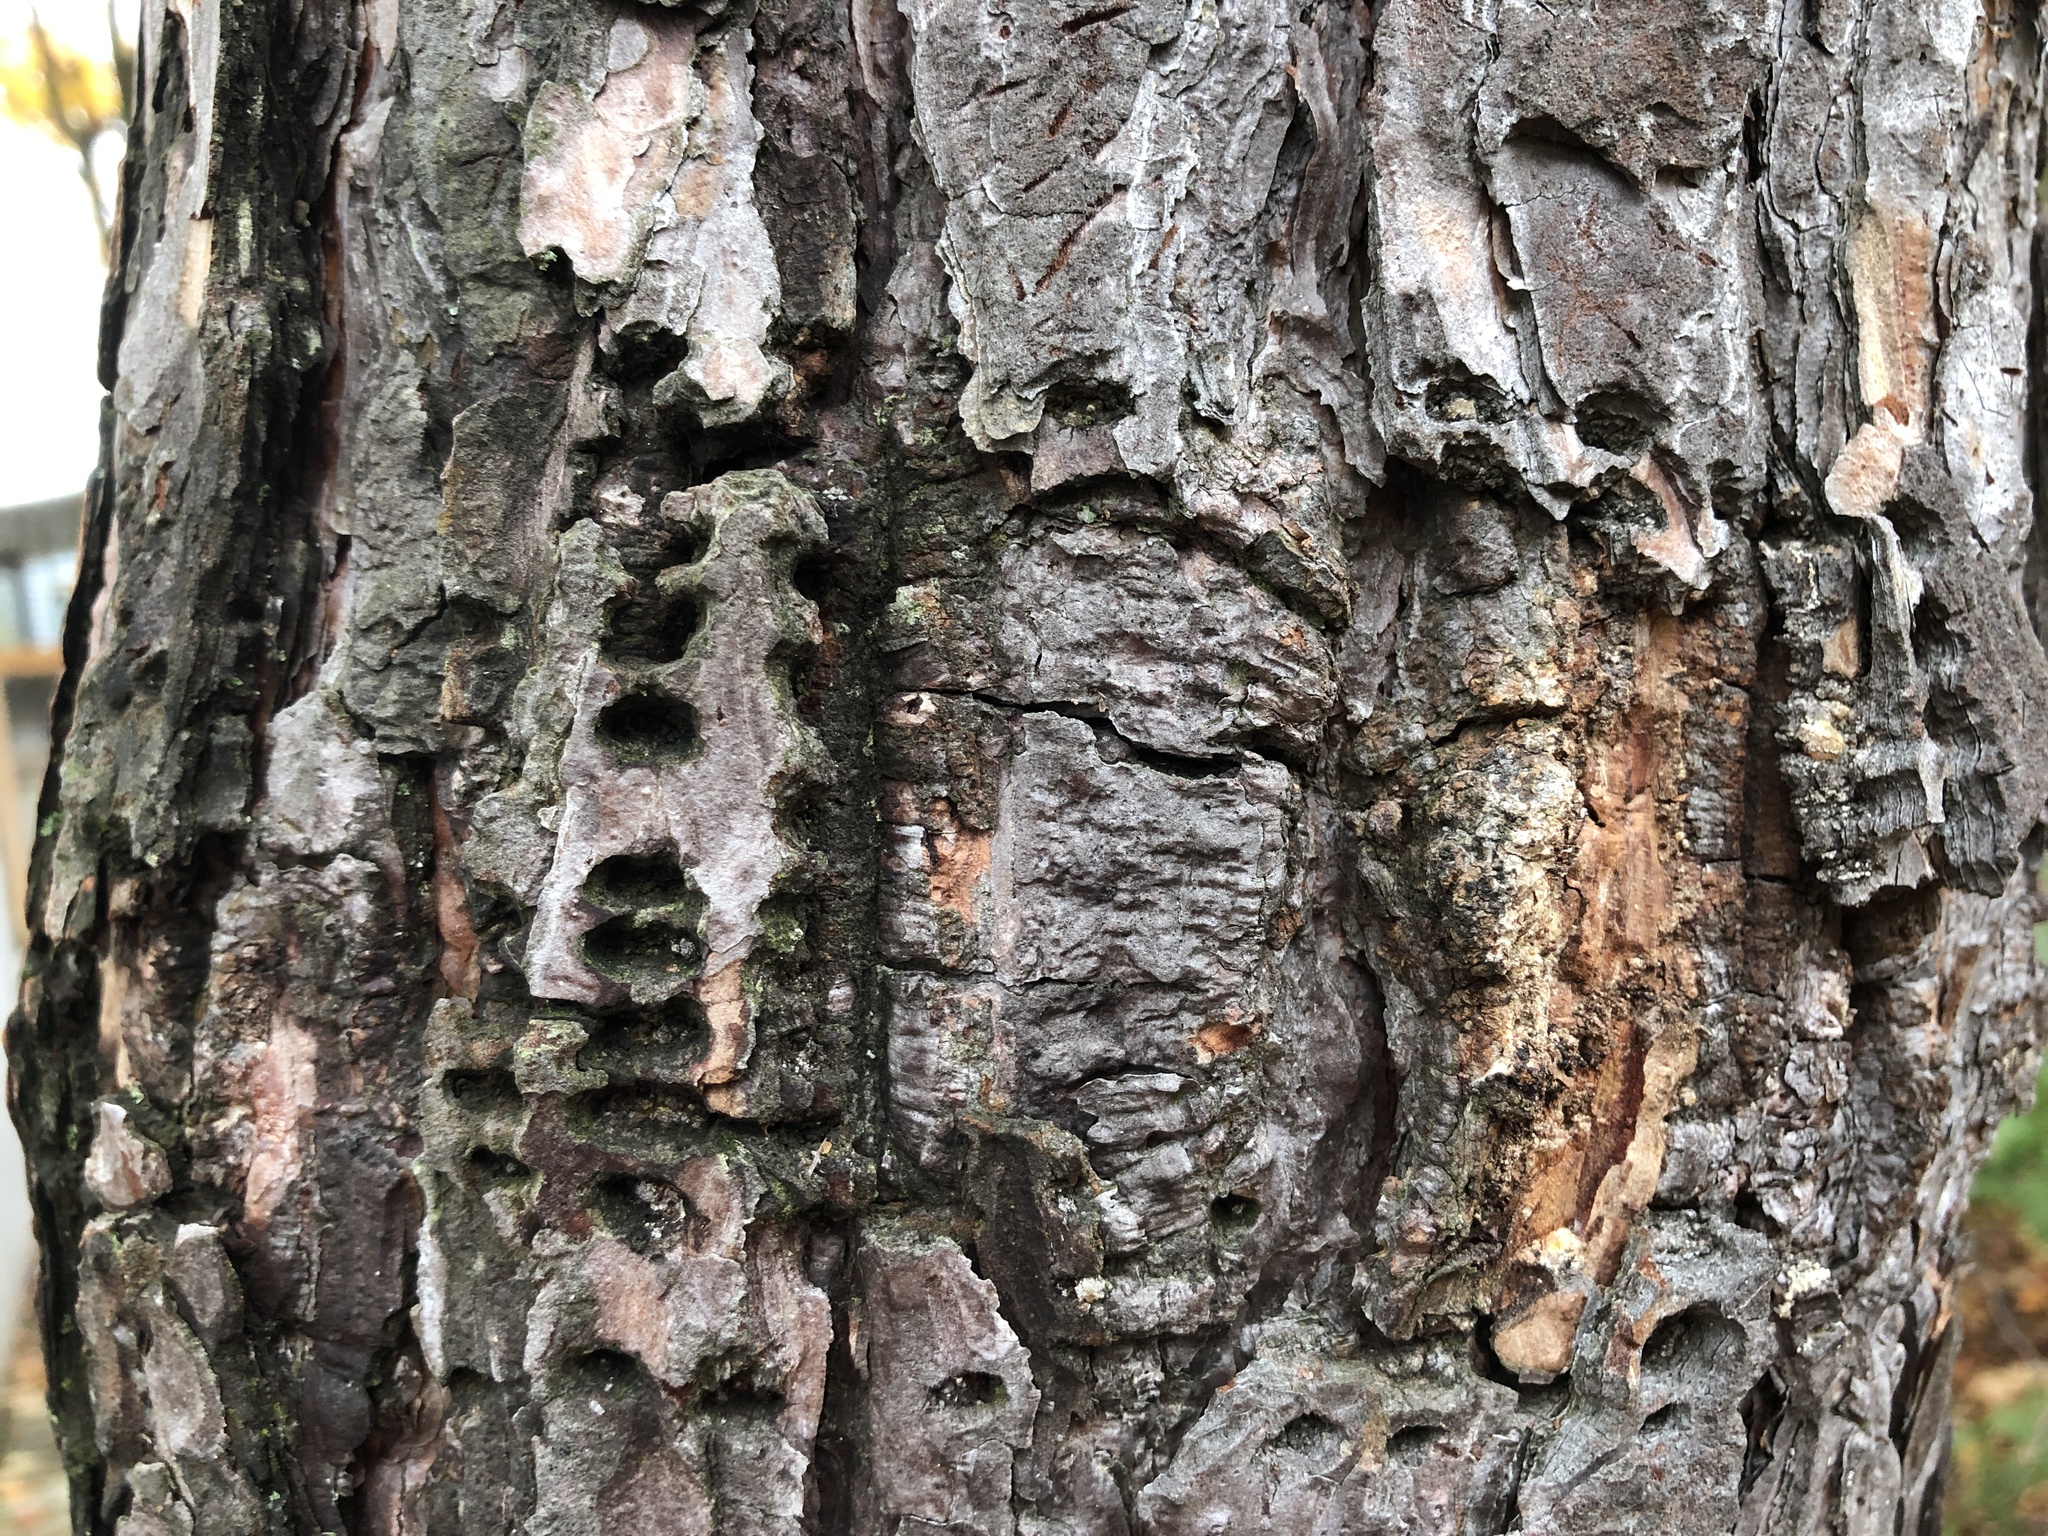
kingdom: Animalia
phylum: Chordata
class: Aves
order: Piciformes
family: Picidae
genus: Sphyrapicus
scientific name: Sphyrapicus varius
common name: Yellow-bellied sapsucker
